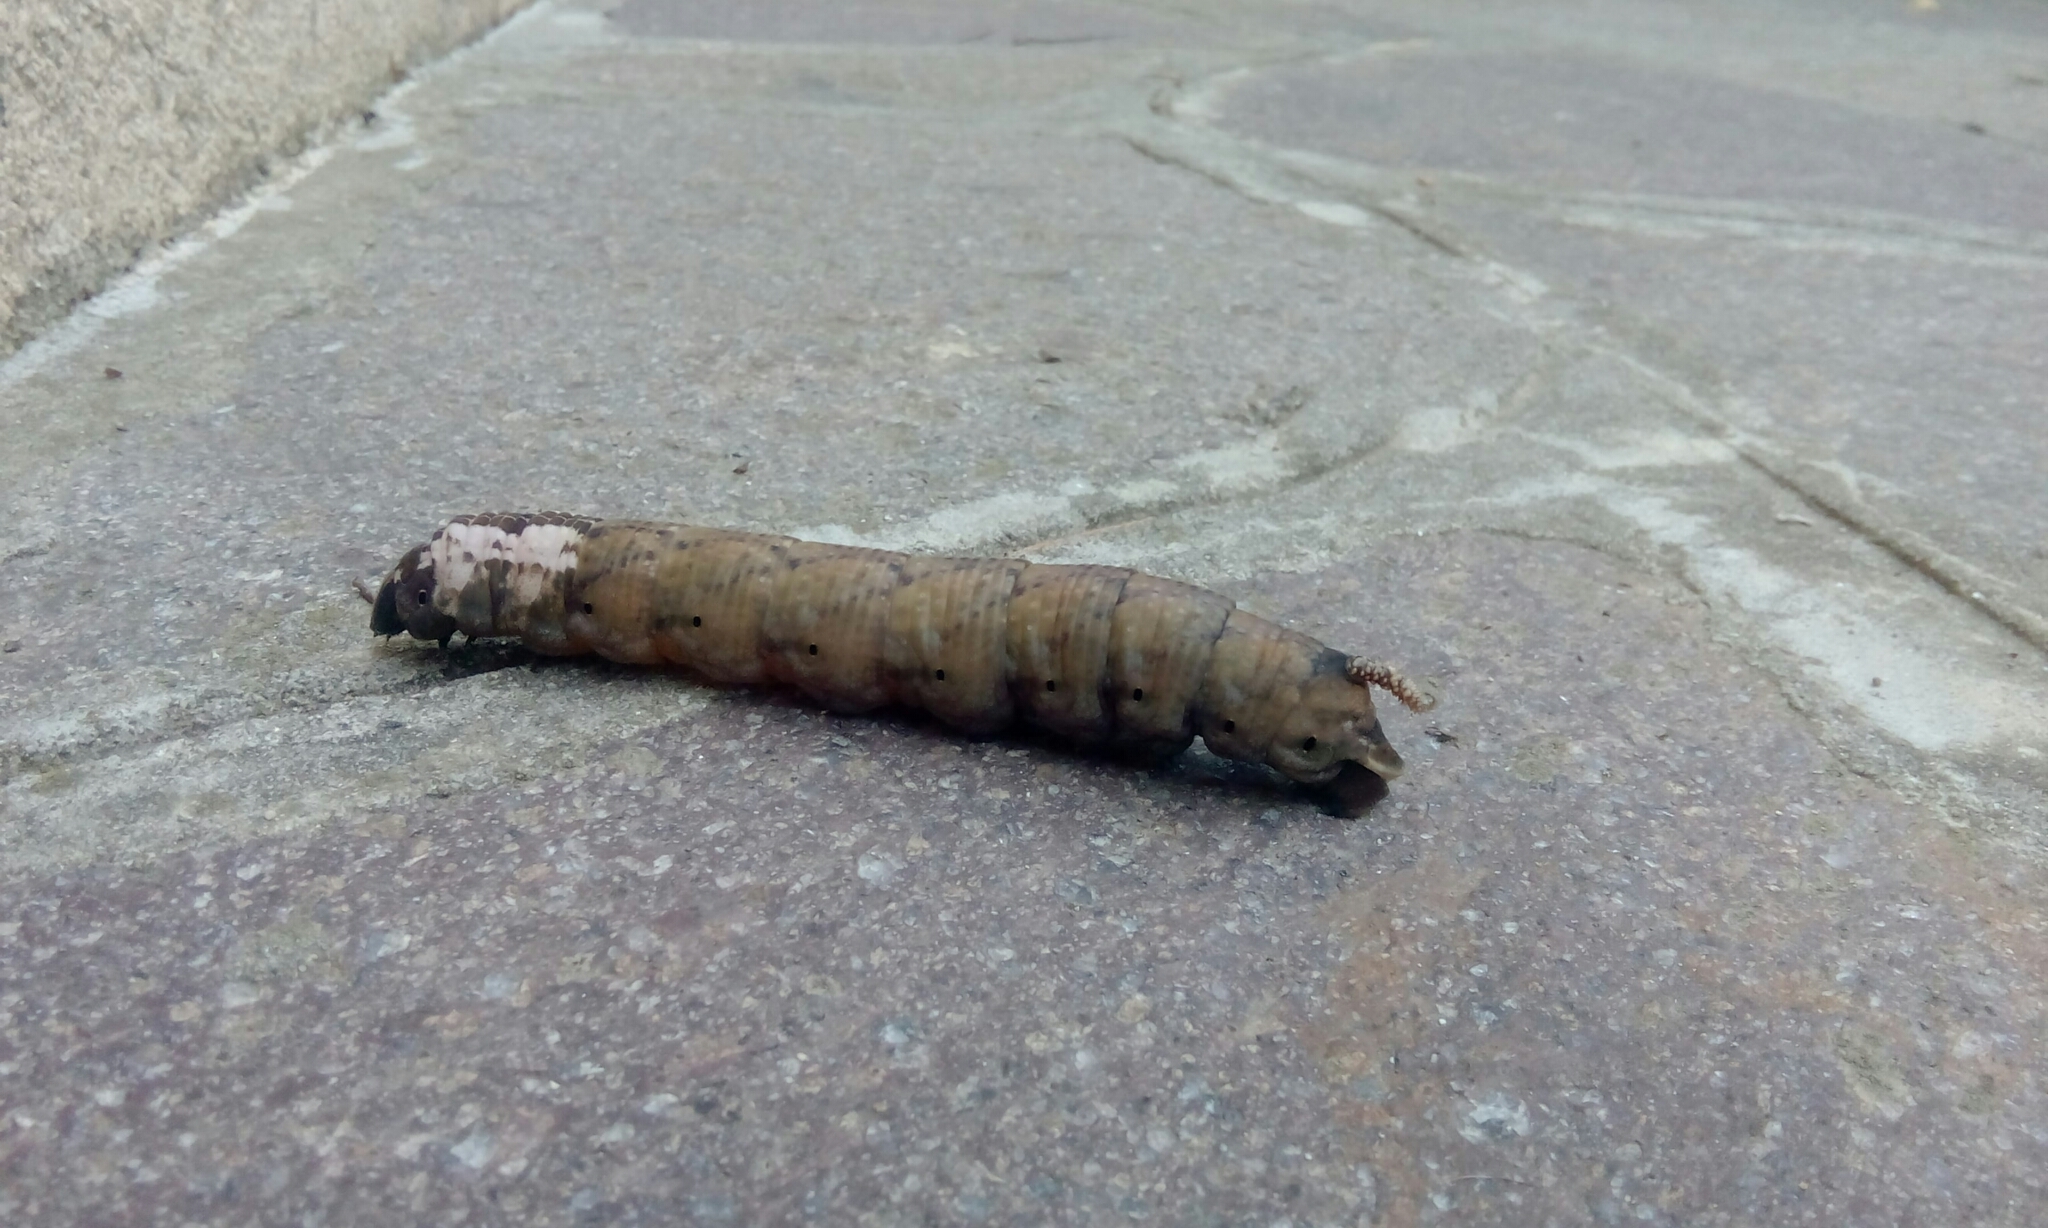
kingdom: Animalia
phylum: Arthropoda
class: Insecta
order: Lepidoptera
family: Sphingidae
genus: Acherontia
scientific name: Acherontia atropos
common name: Death's-head hawk moth
